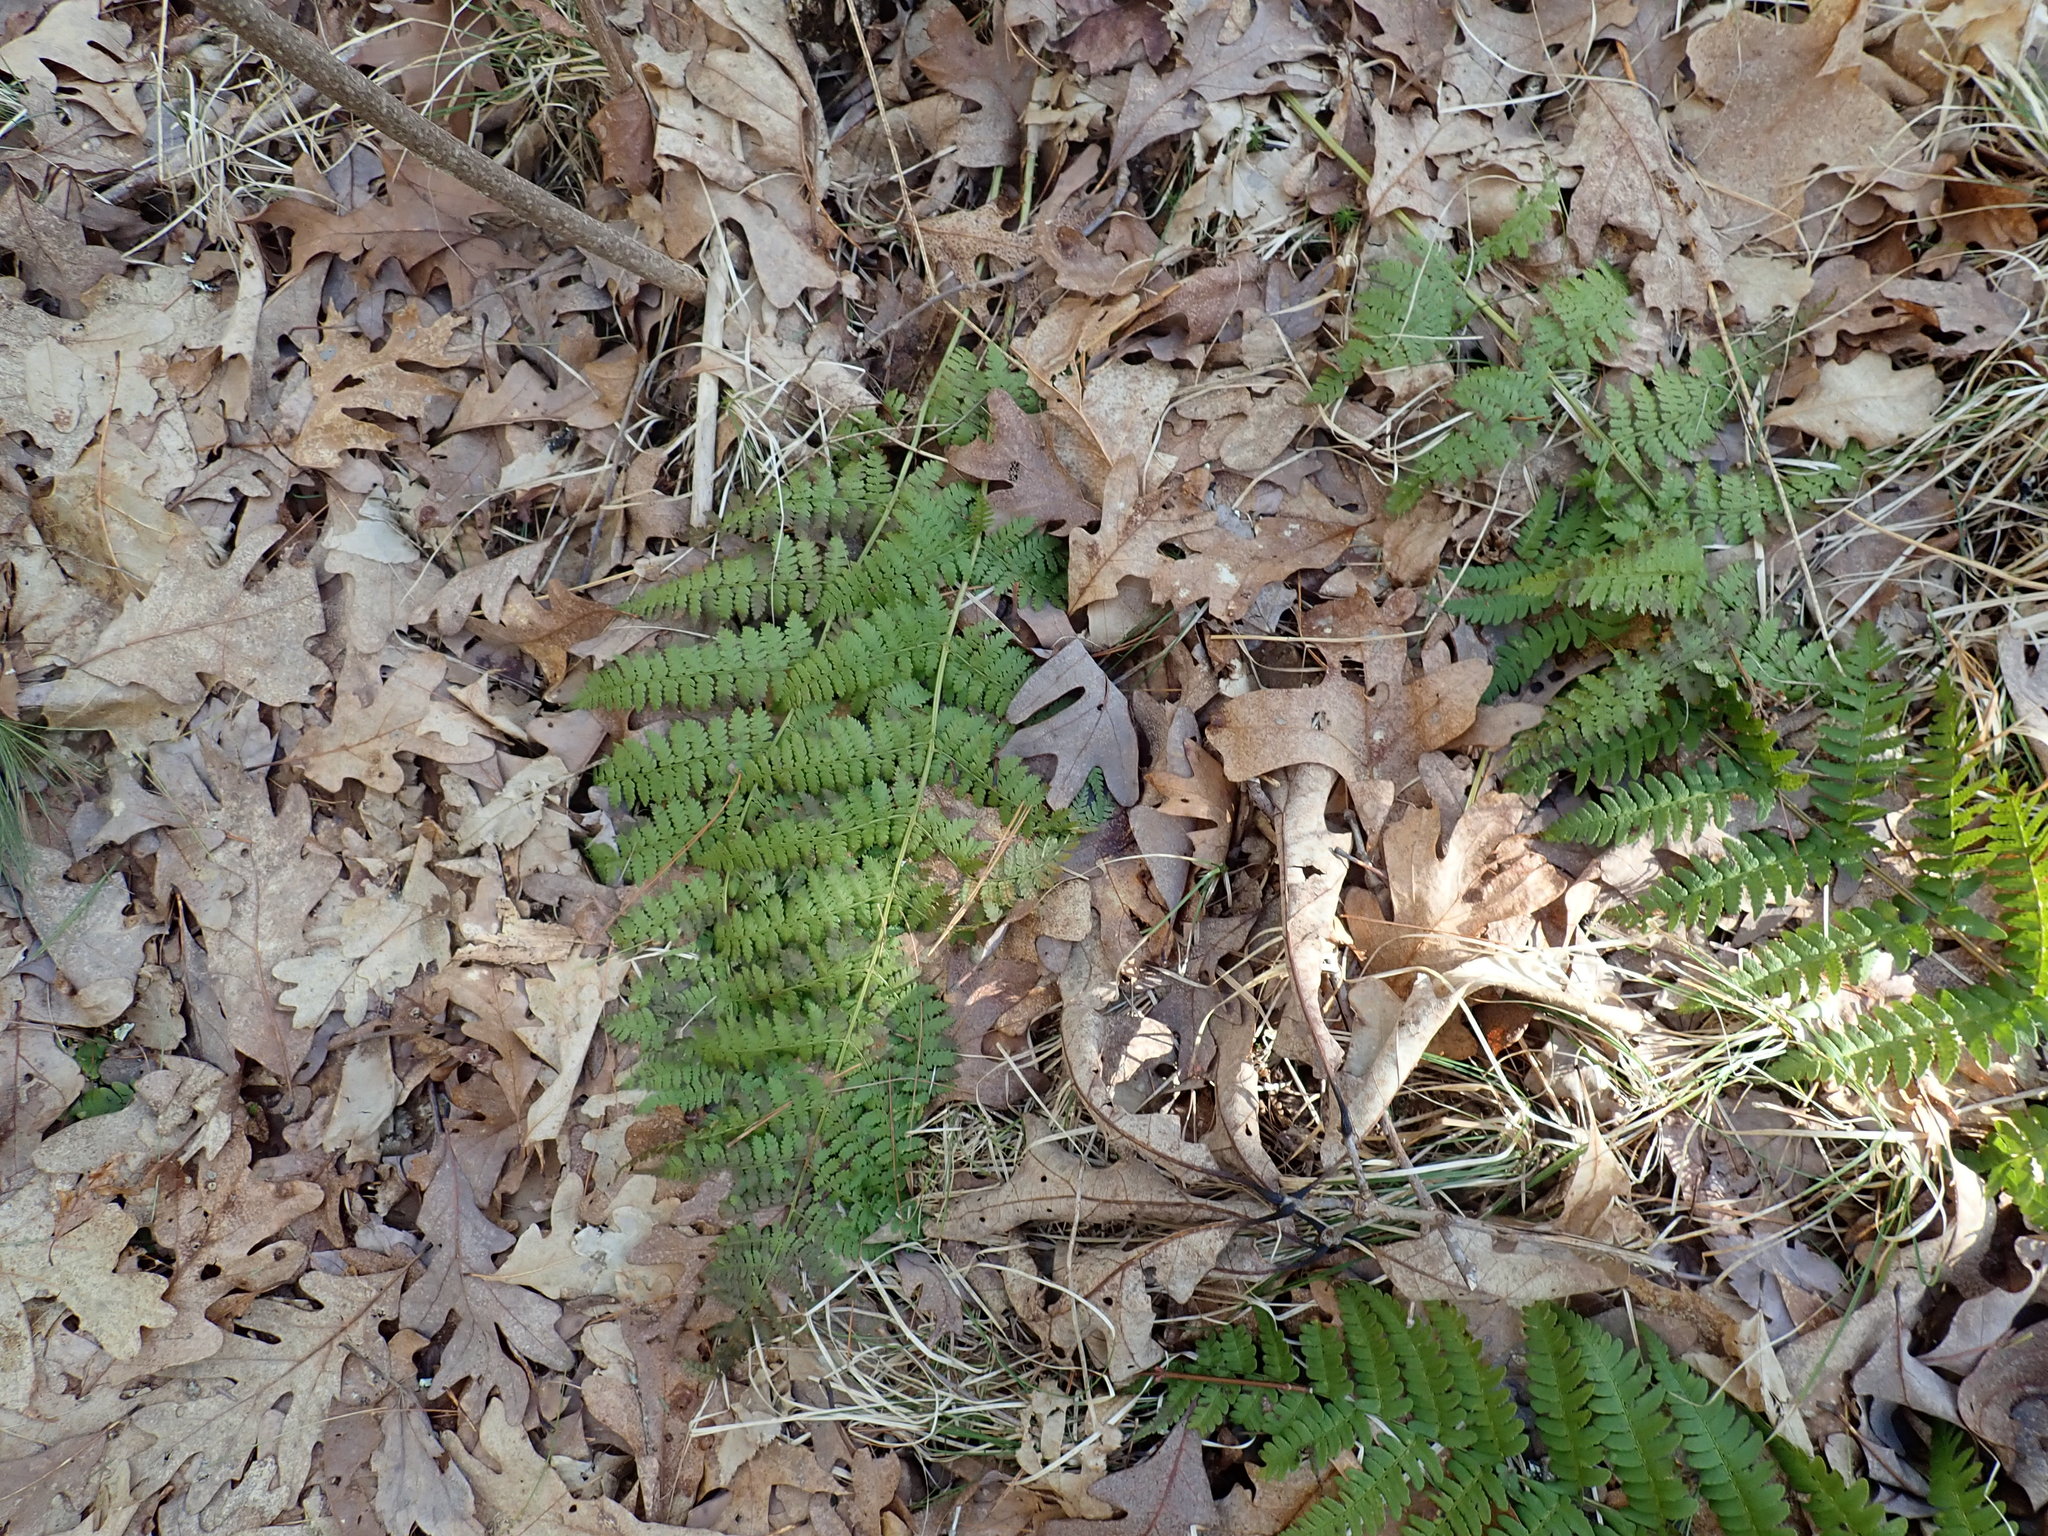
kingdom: Plantae
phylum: Tracheophyta
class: Polypodiopsida
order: Polypodiales
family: Dryopteridaceae
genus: Dryopteris
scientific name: Dryopteris intermedia
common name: Evergreen wood fern
